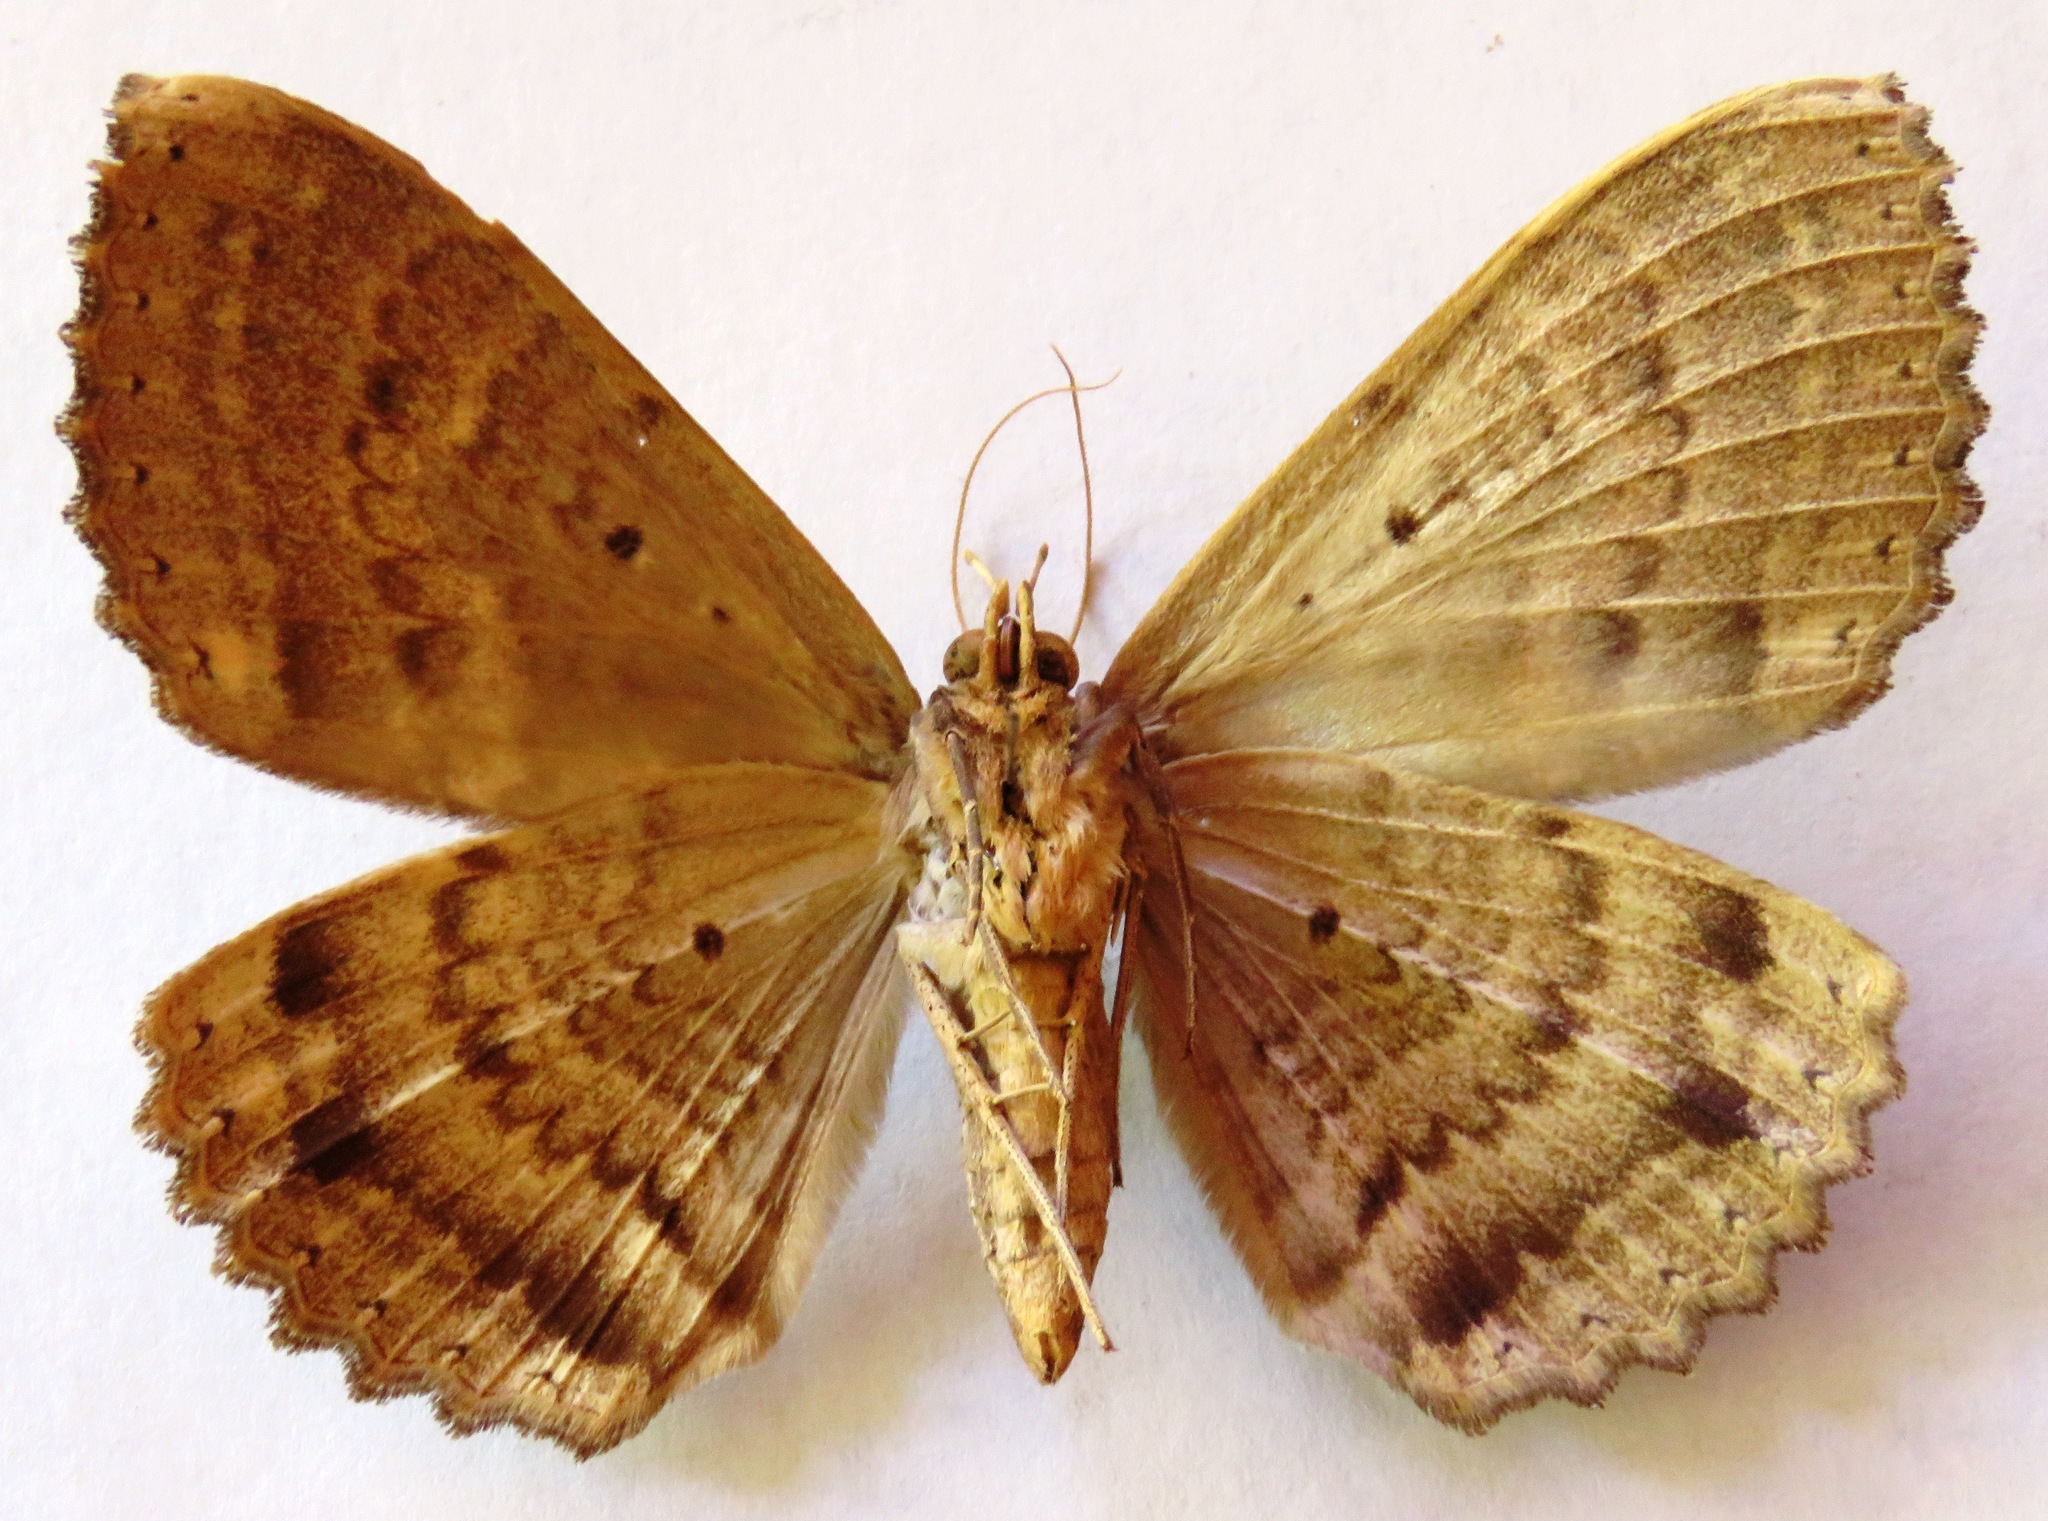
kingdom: Animalia
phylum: Arthropoda
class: Insecta
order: Lepidoptera
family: Erebidae
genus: Ramphia
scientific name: Ramphia albizona
